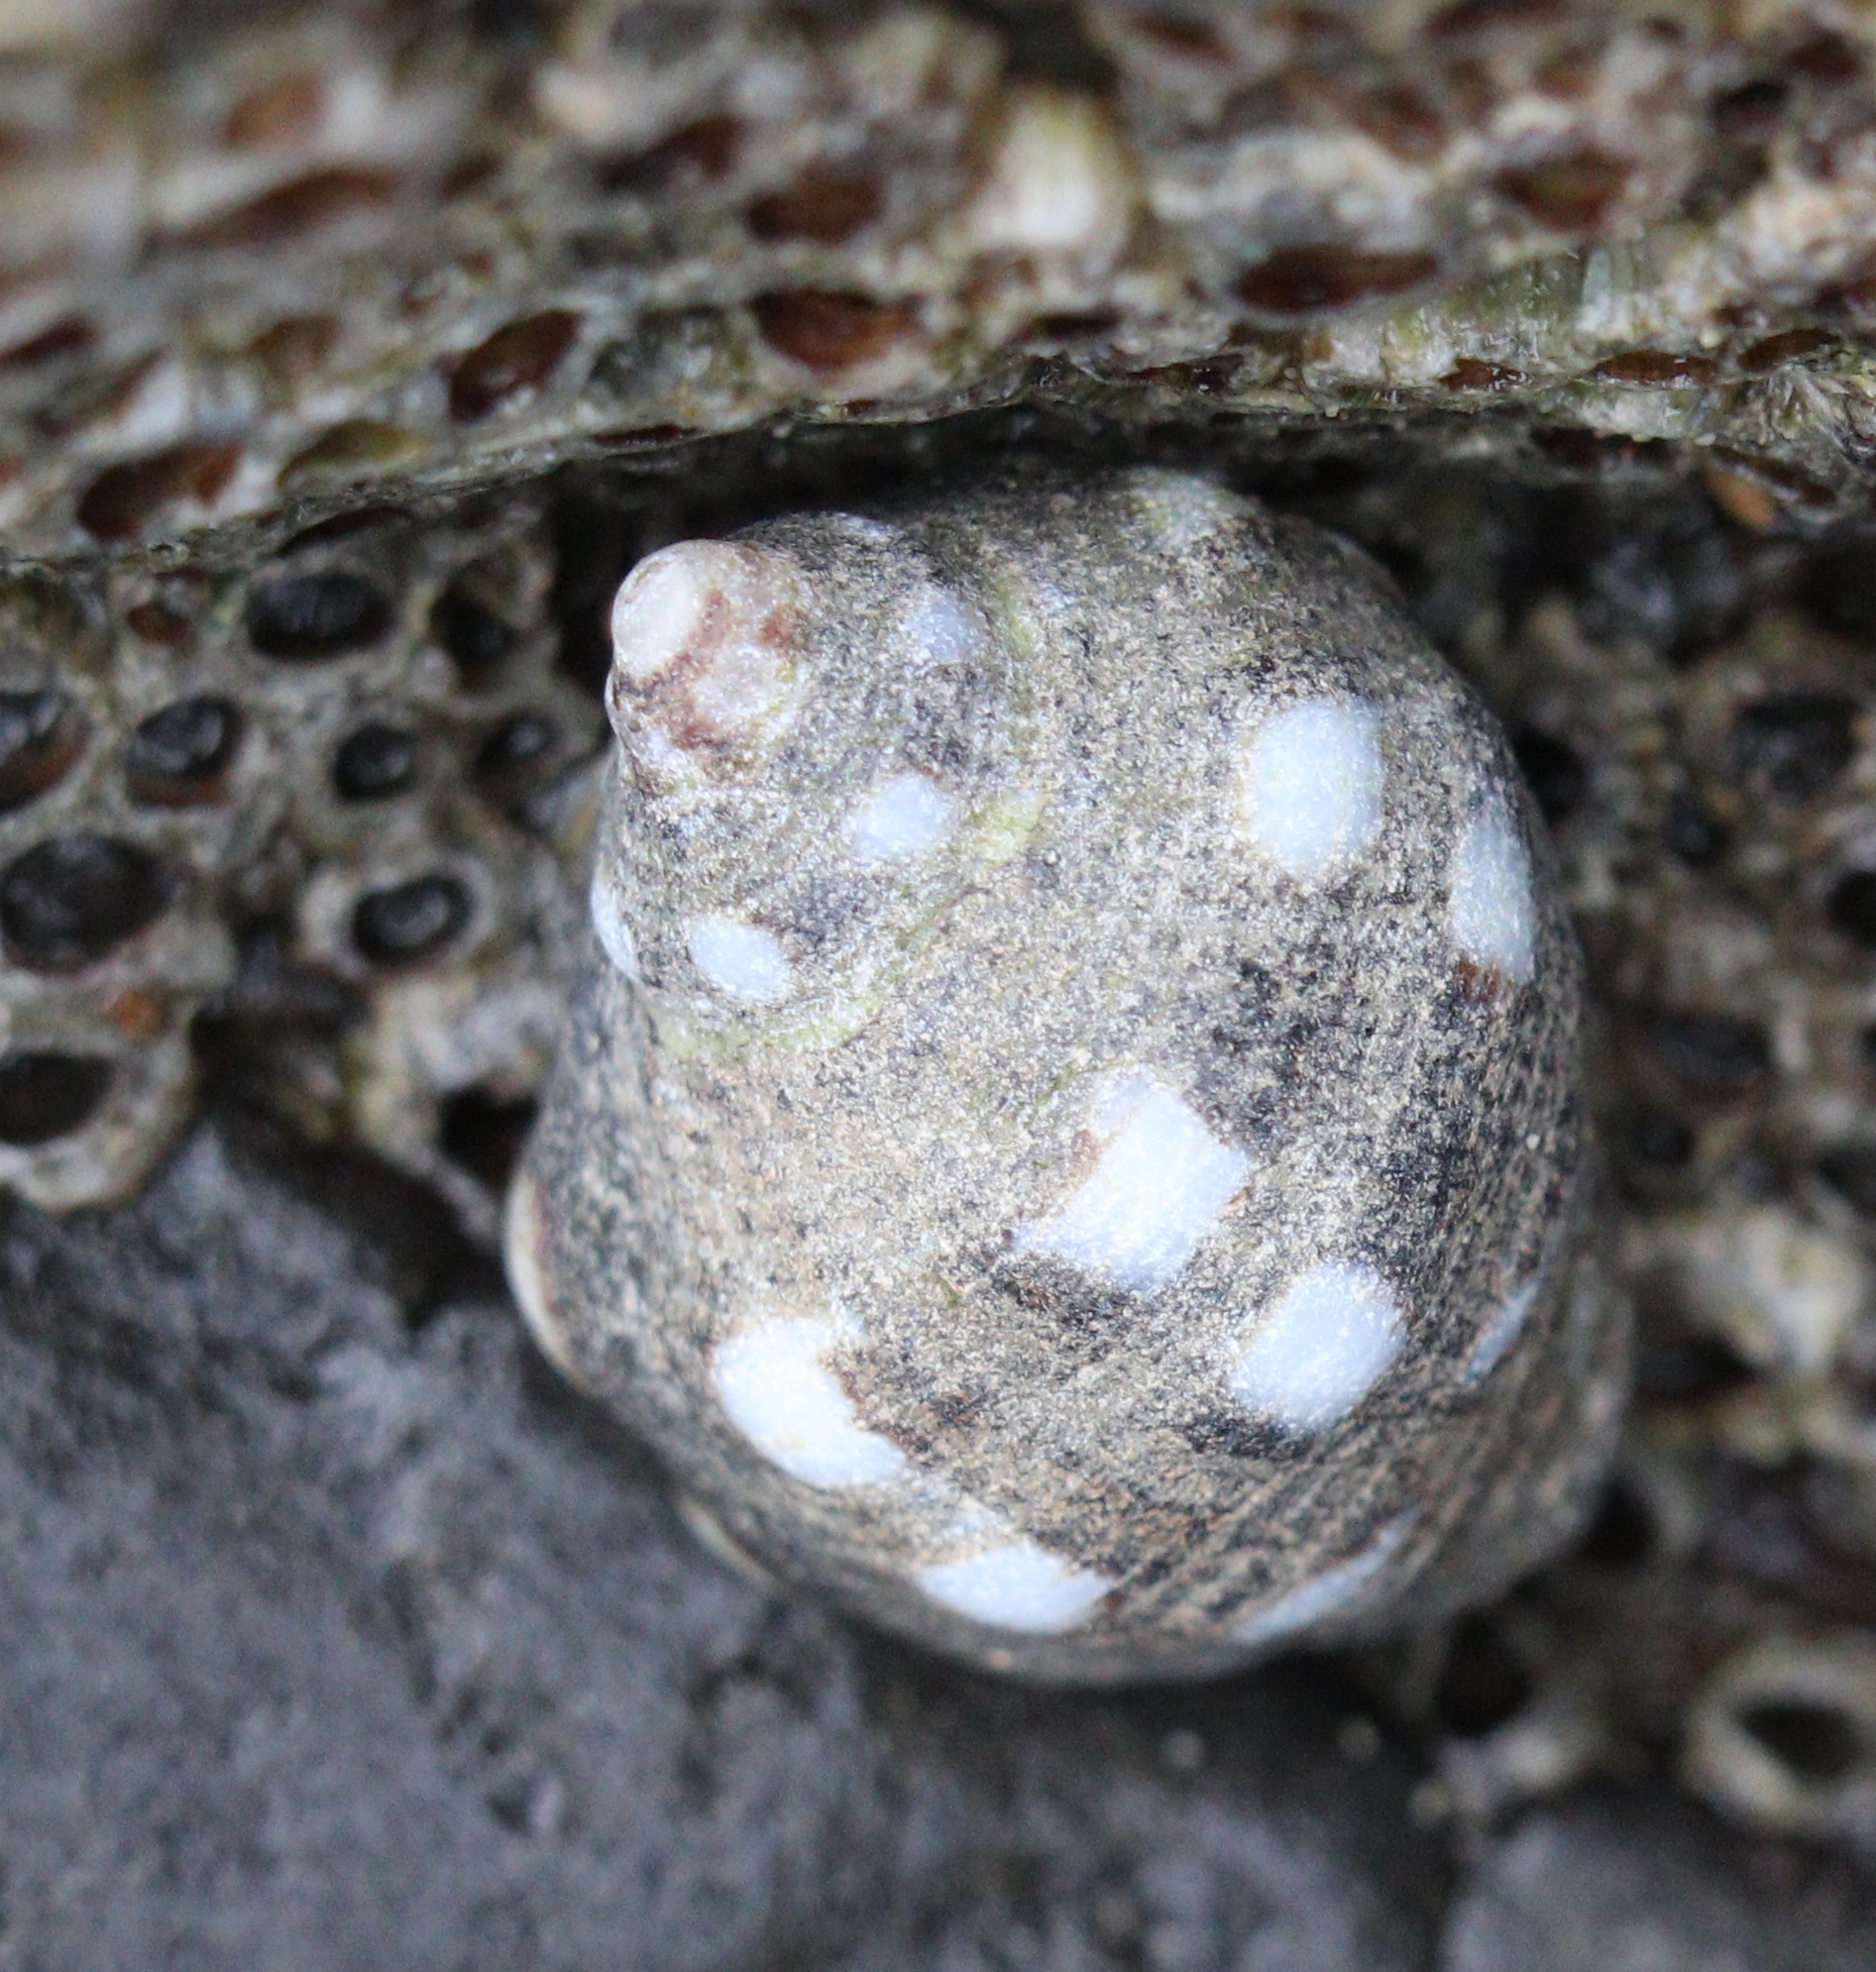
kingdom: Animalia
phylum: Mollusca
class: Gastropoda
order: Neogastropoda
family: Muricidae
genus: Acanthais
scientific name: Acanthais brevidentata
